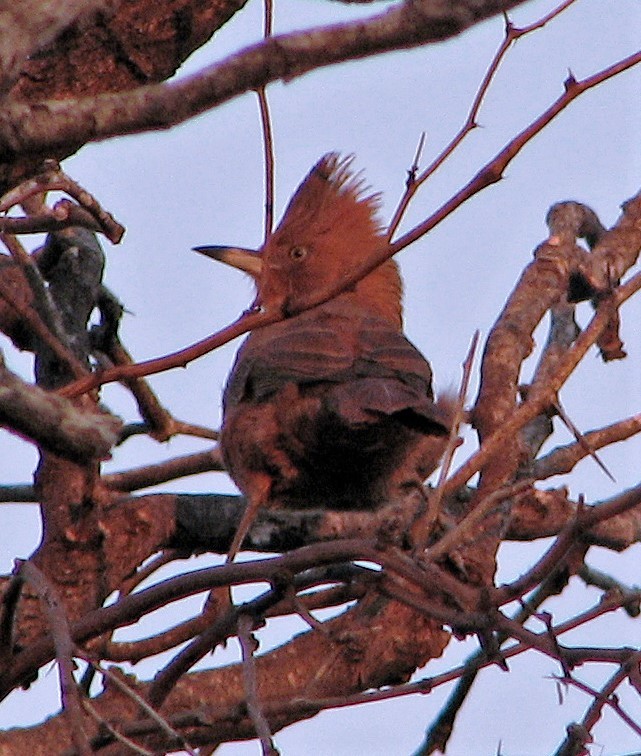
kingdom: Animalia
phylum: Chordata
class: Aves
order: Passeriformes
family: Furnariidae
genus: Pseudoseisura
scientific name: Pseudoseisura lophotes
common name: Brown cacholote
